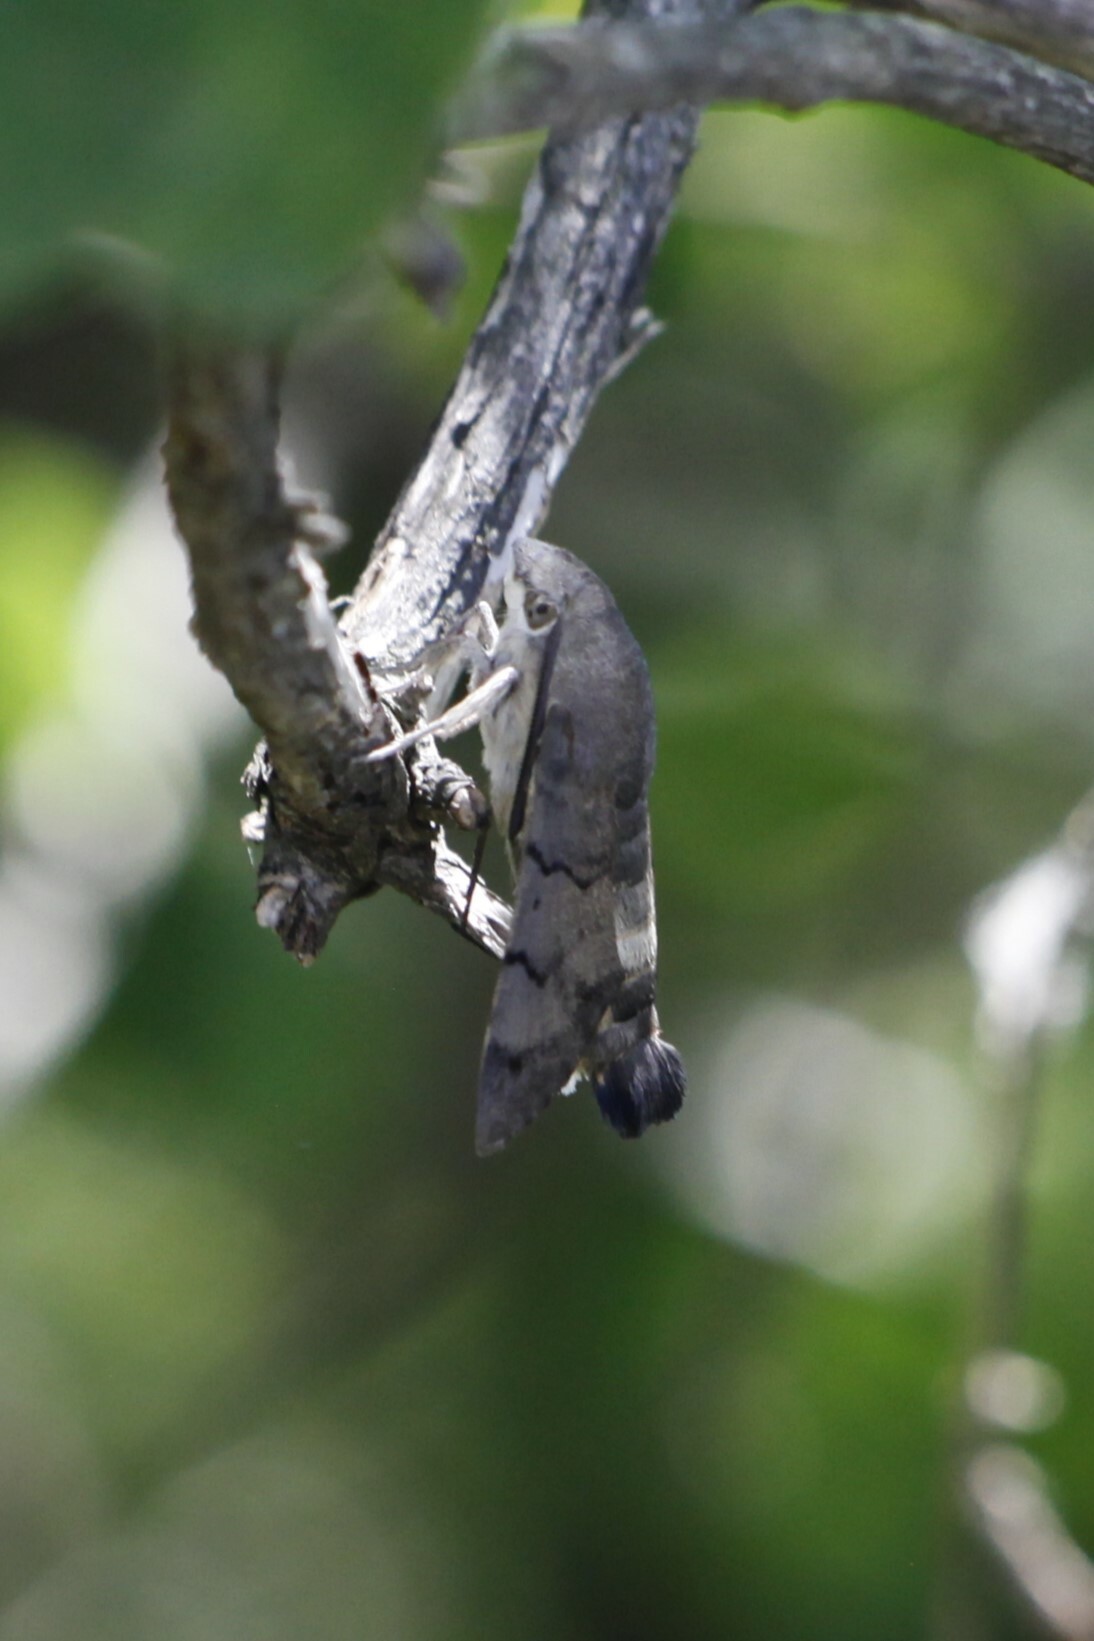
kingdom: Animalia
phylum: Arthropoda
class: Insecta
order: Lepidoptera
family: Sphingidae
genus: Macroglossum
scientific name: Macroglossum stellatarum
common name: Humming-bird hawk-moth
